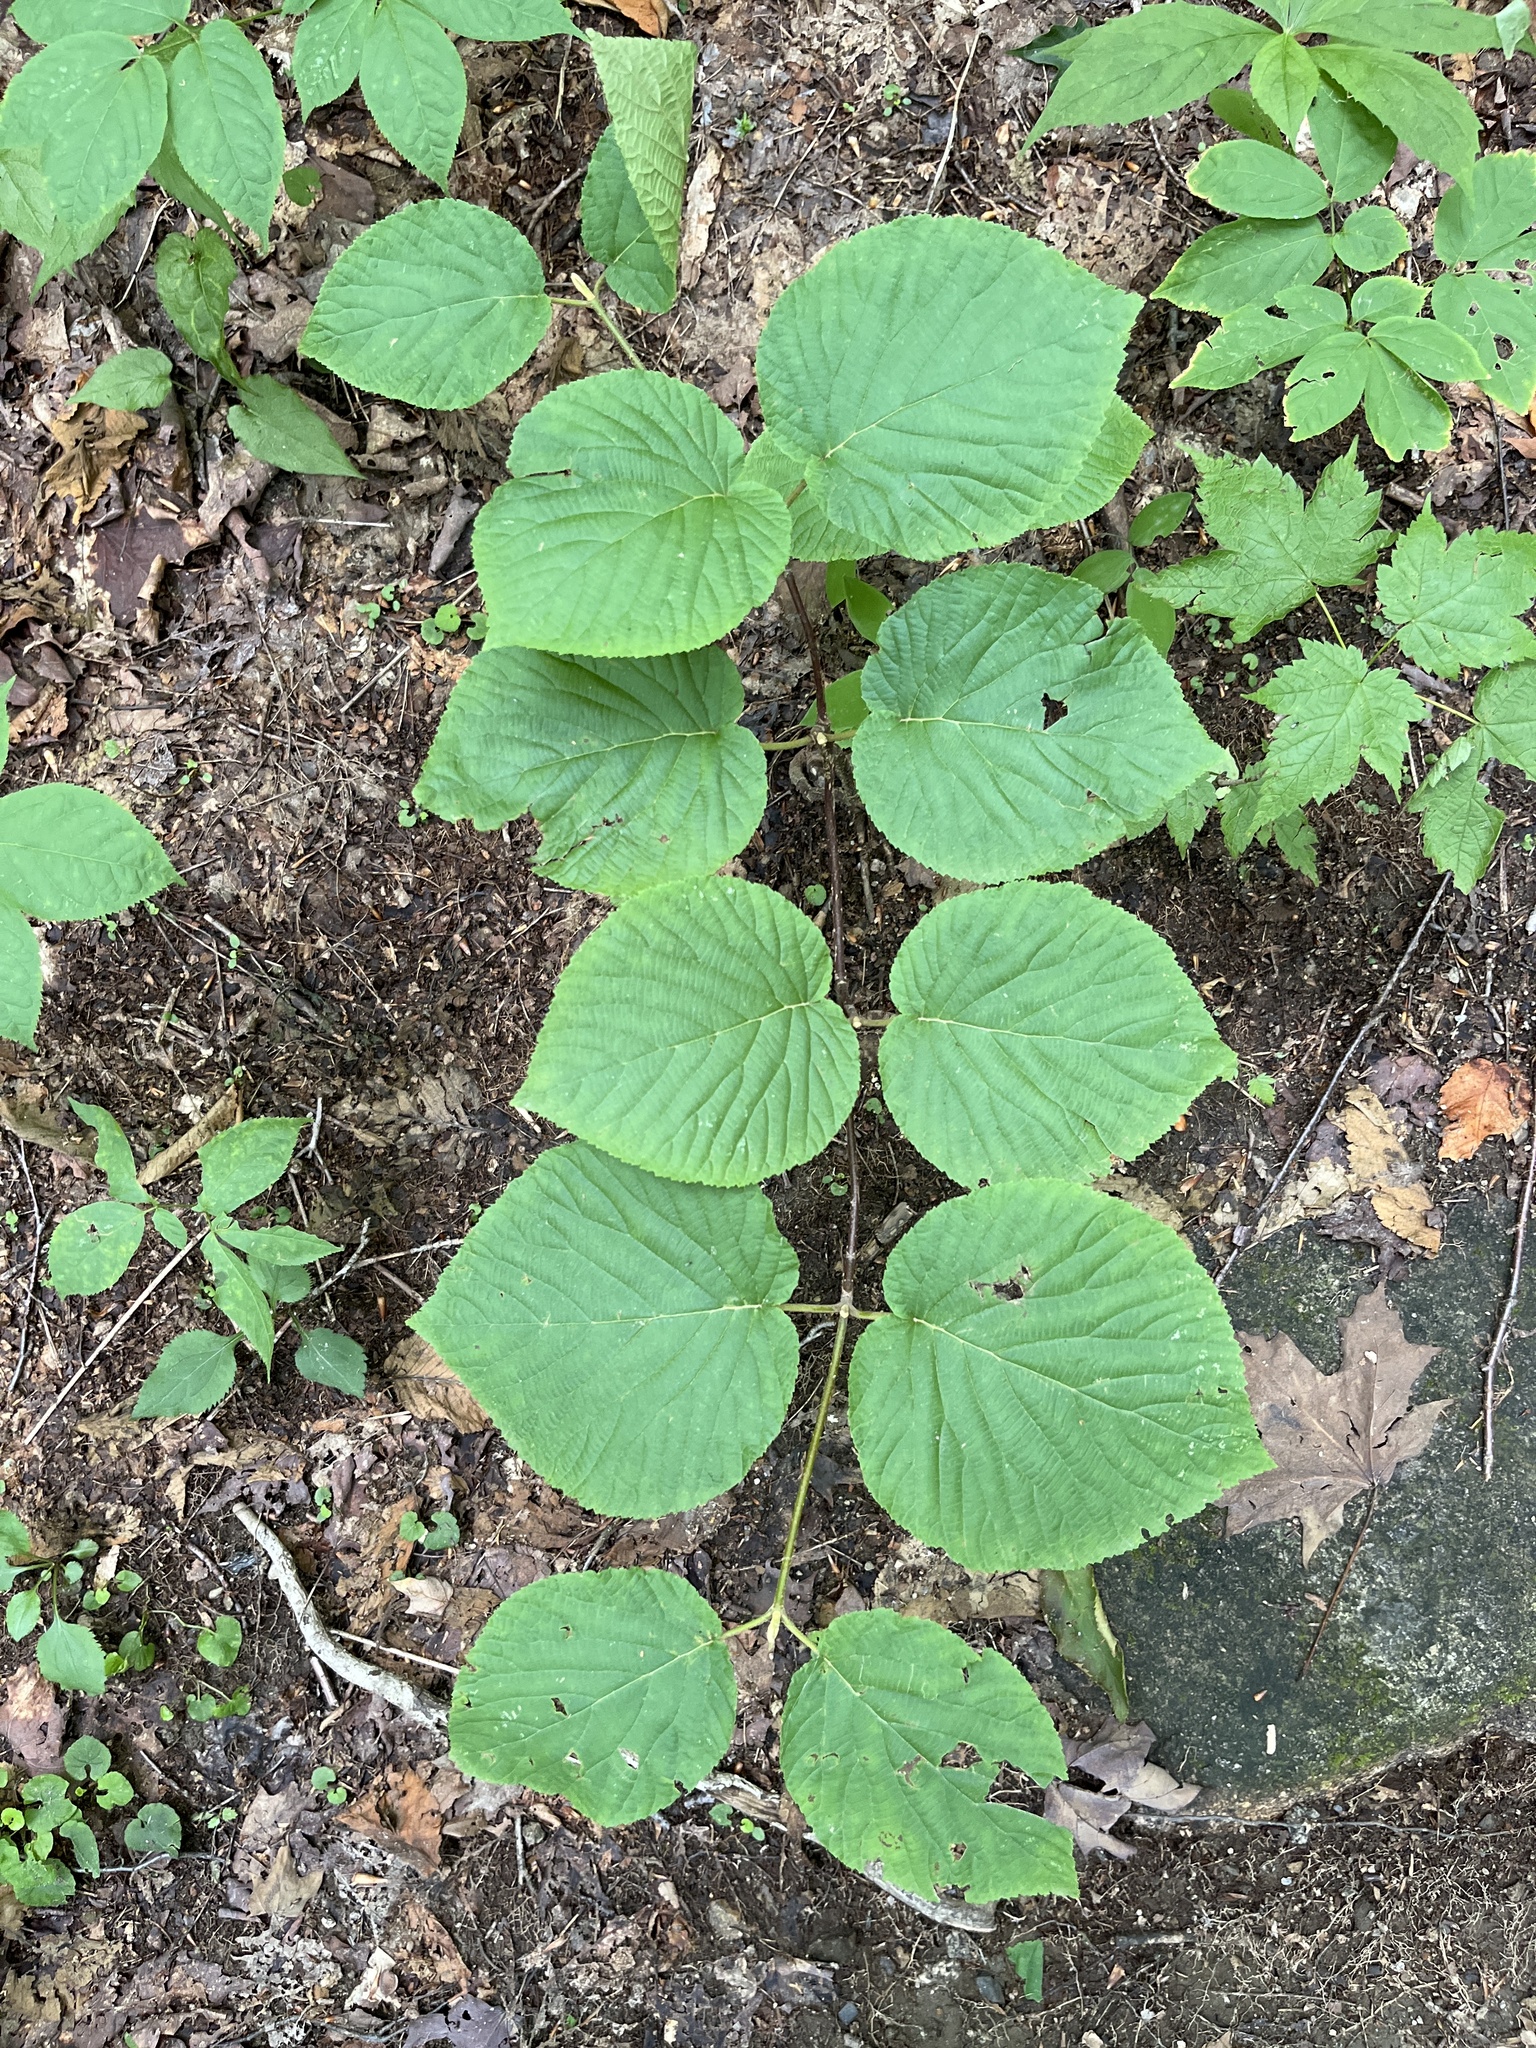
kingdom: Plantae
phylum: Tracheophyta
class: Magnoliopsida
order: Dipsacales
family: Viburnaceae
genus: Viburnum
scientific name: Viburnum lantanoides
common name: Hobblebush
